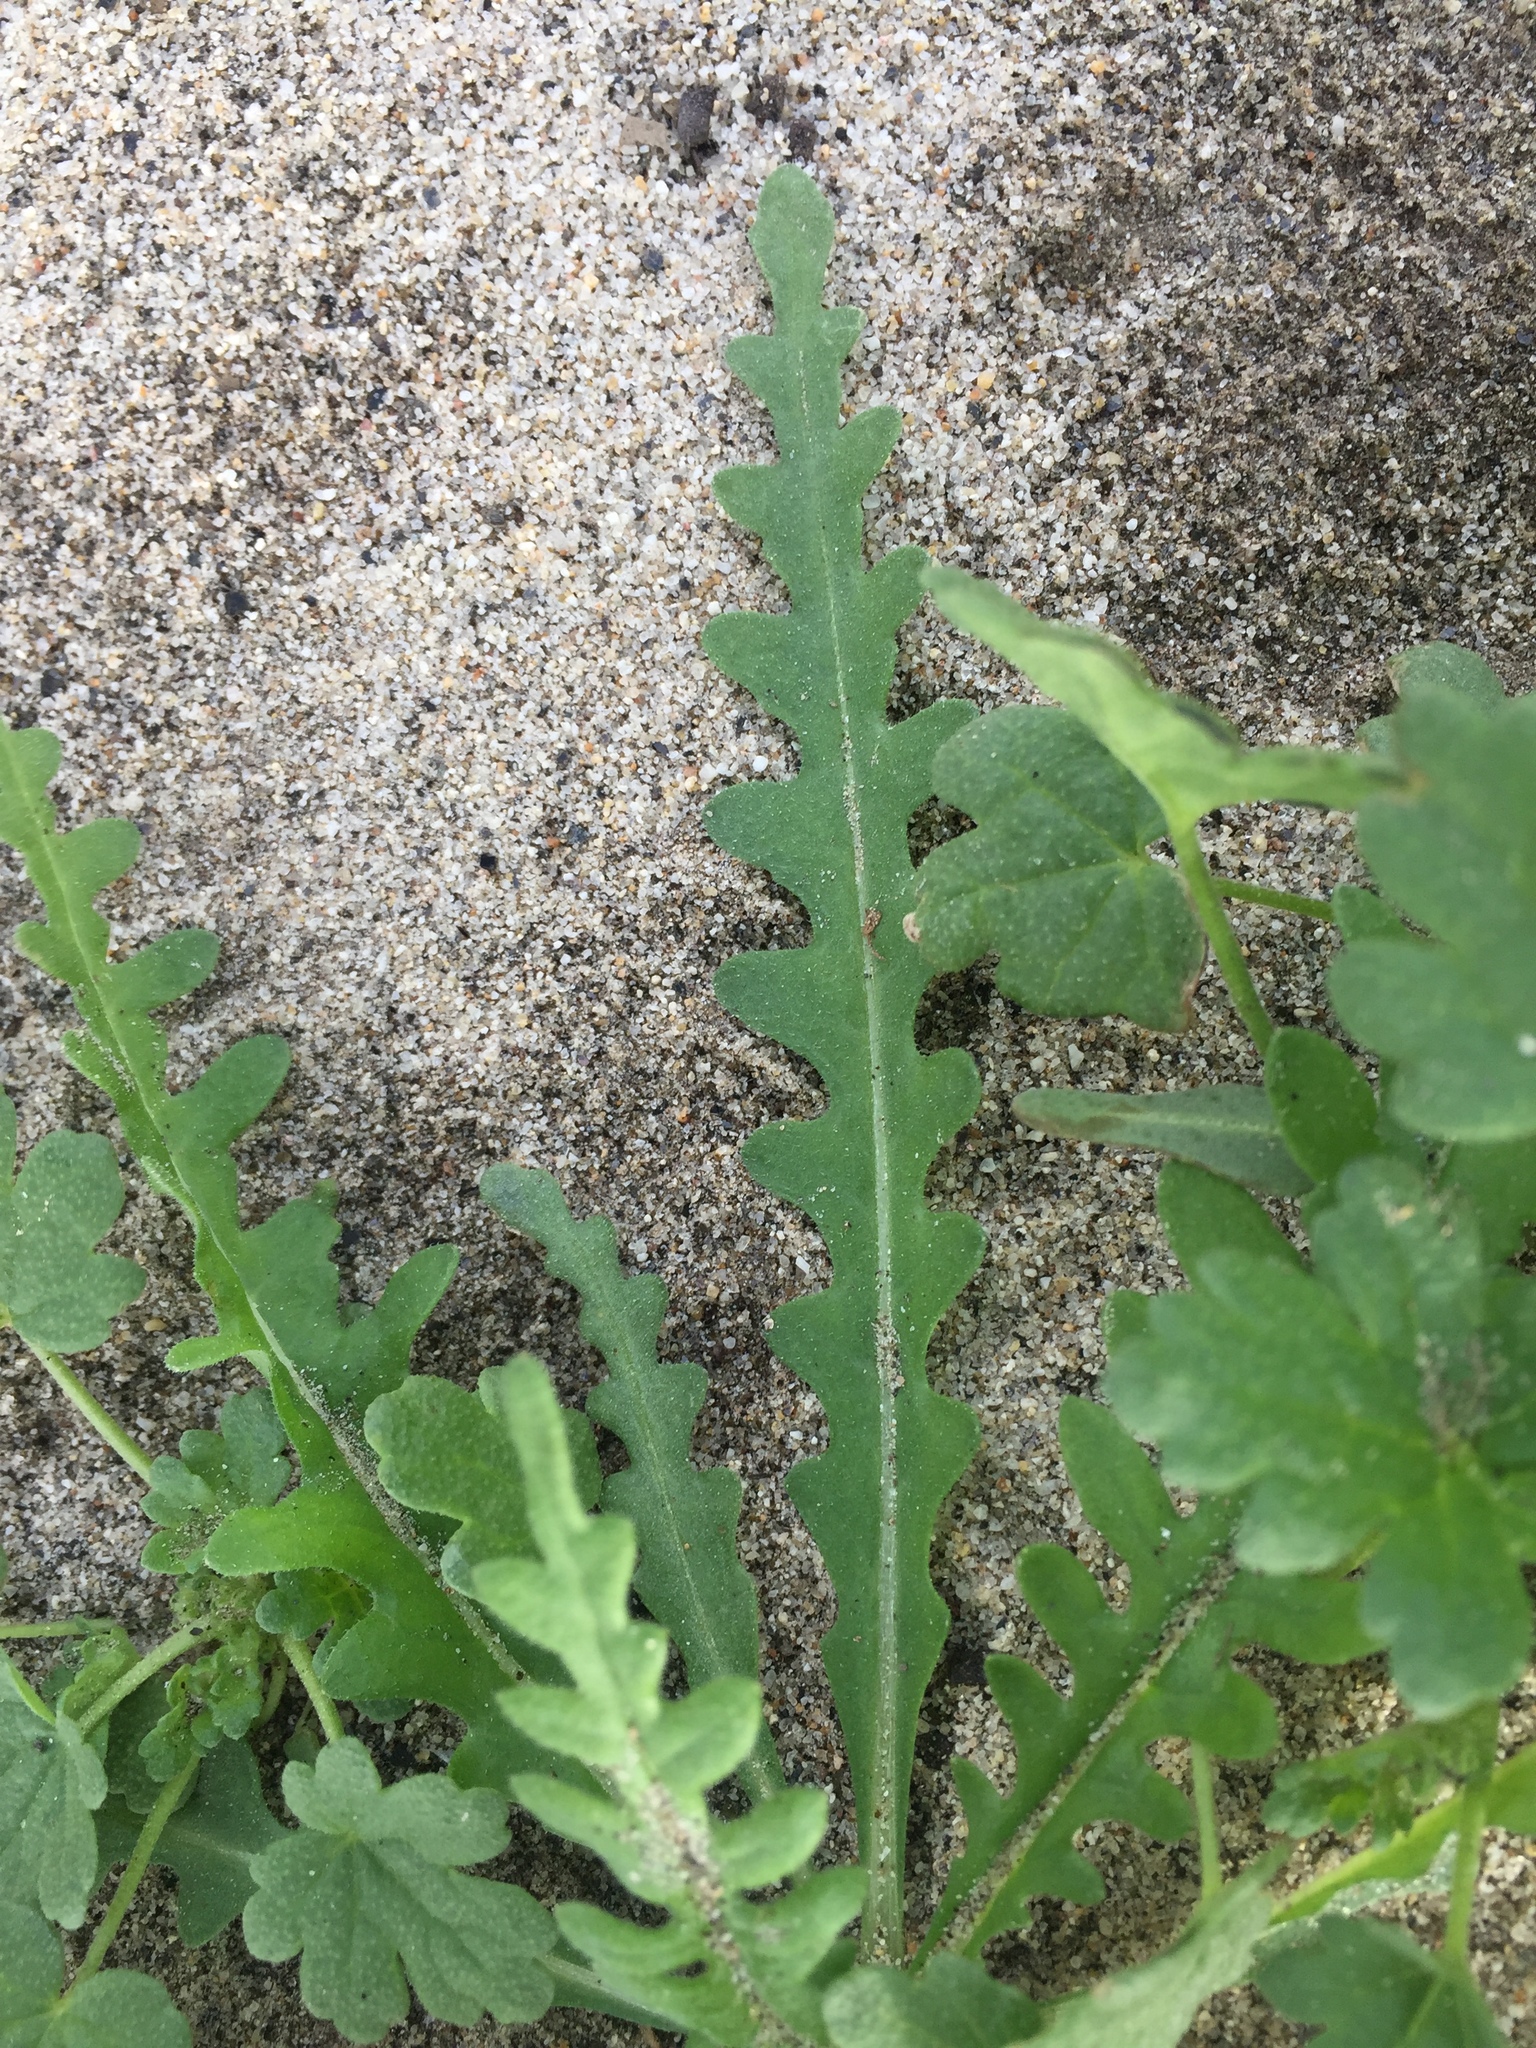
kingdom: Plantae
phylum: Tracheophyta
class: Magnoliopsida
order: Boraginales
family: Hydrophyllaceae
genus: Emmenanthe
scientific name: Emmenanthe penduliflora
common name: Whispering-bells
